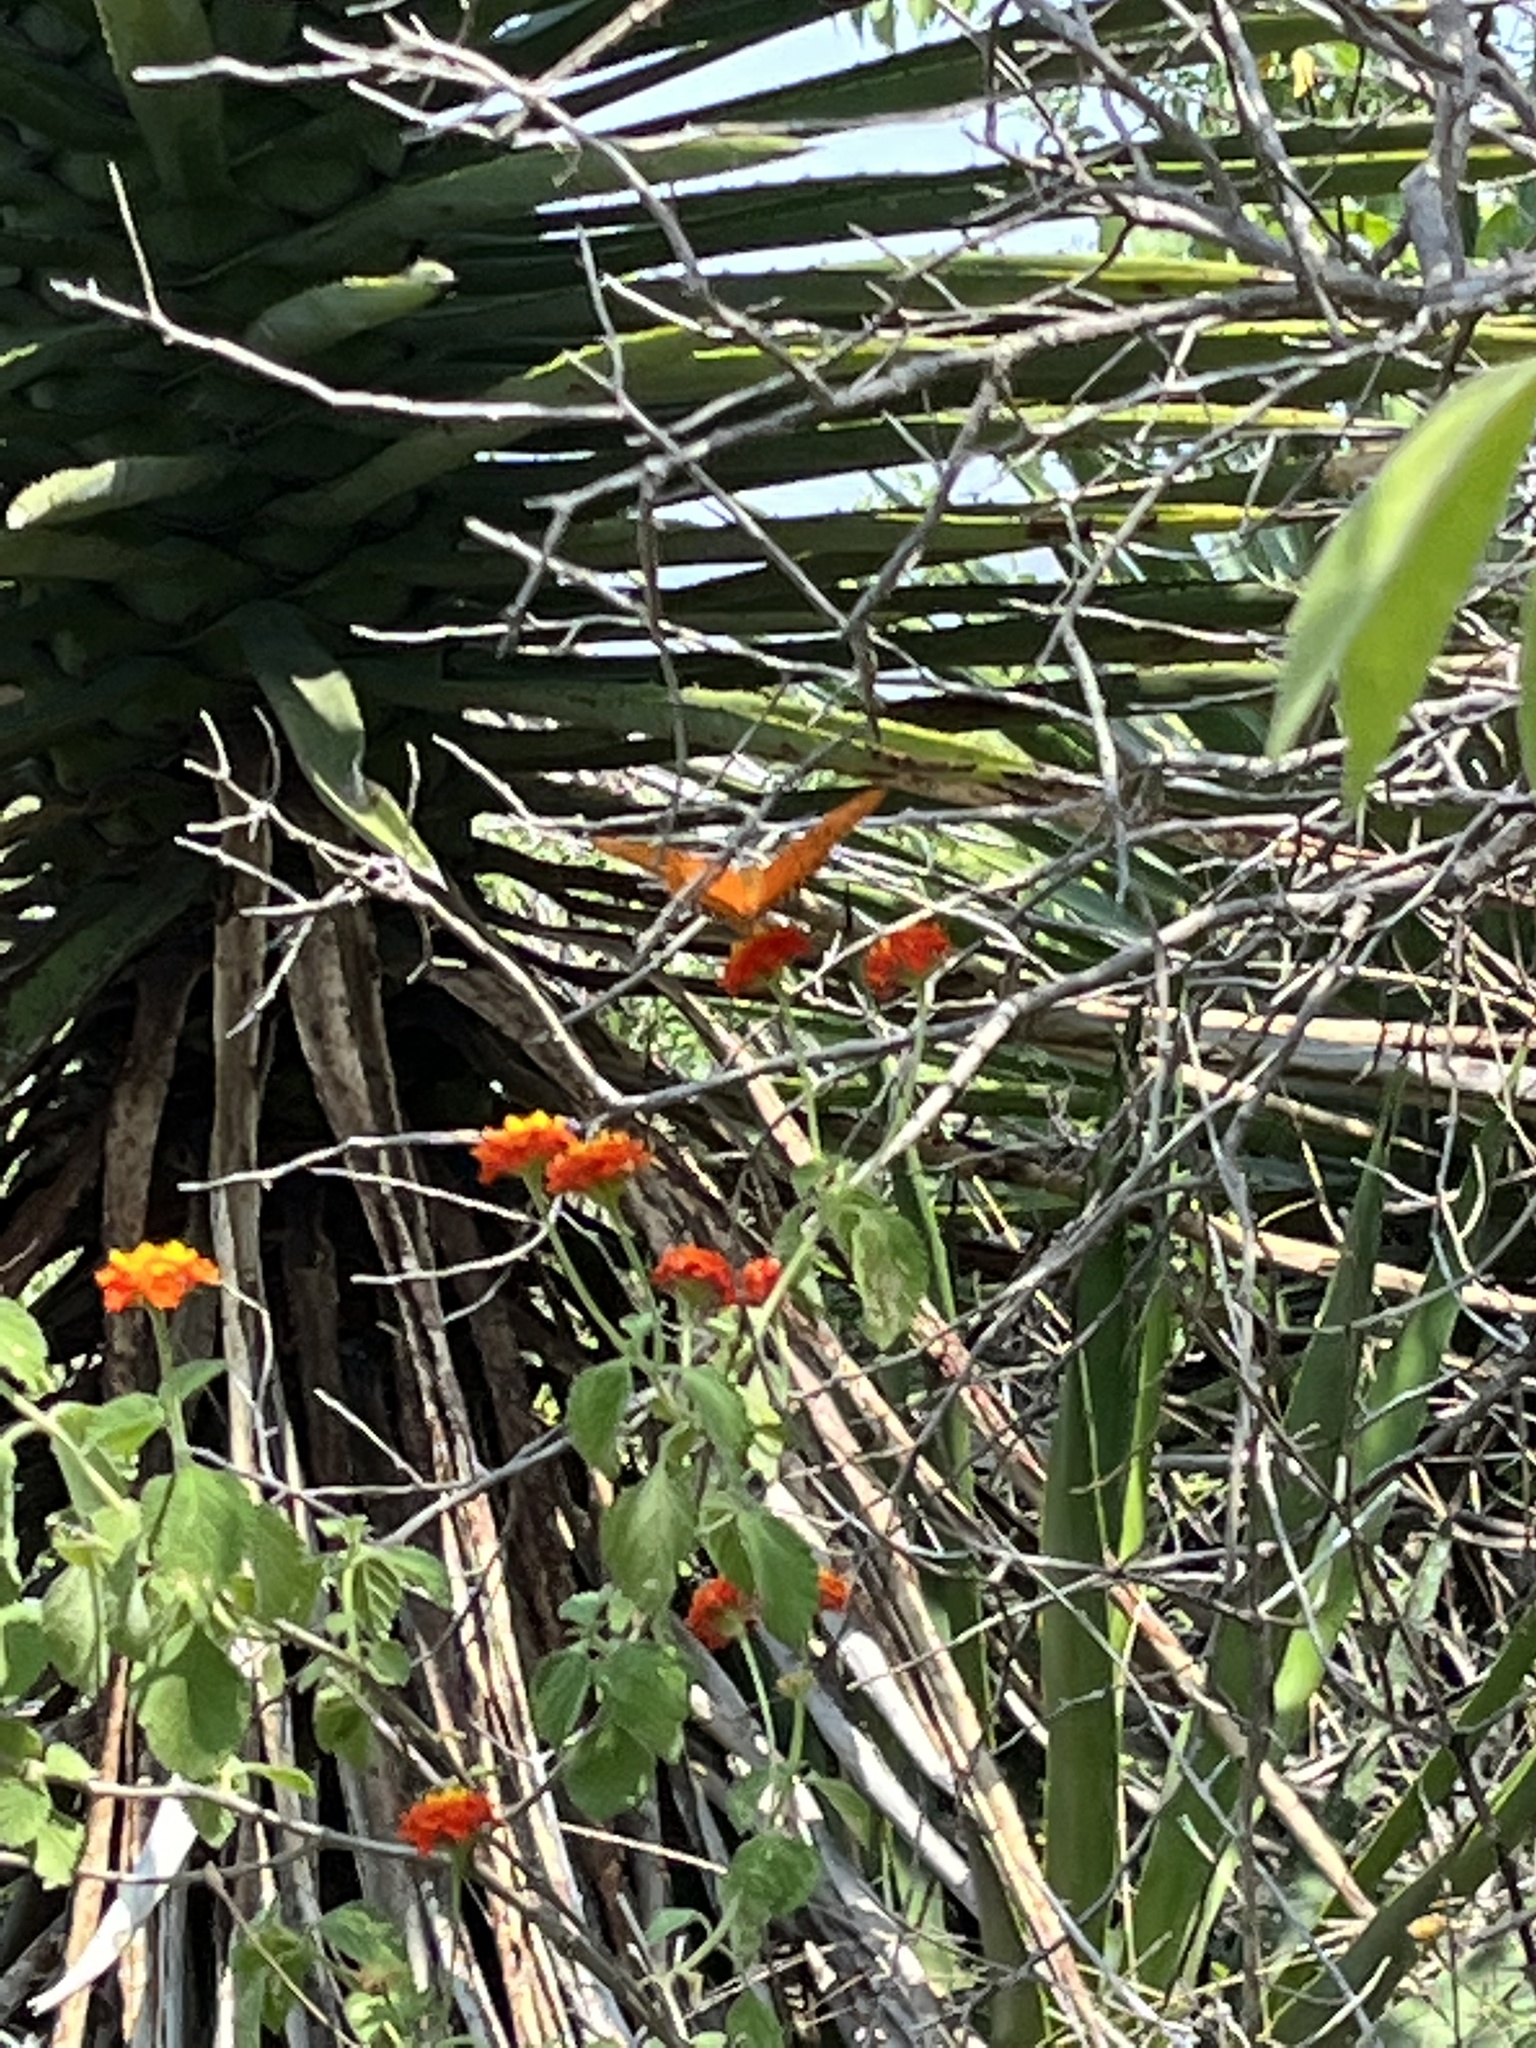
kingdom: Animalia
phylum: Arthropoda
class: Insecta
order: Lepidoptera
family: Nymphalidae
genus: Dione
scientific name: Dione vanillae
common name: Gulf fritillary
